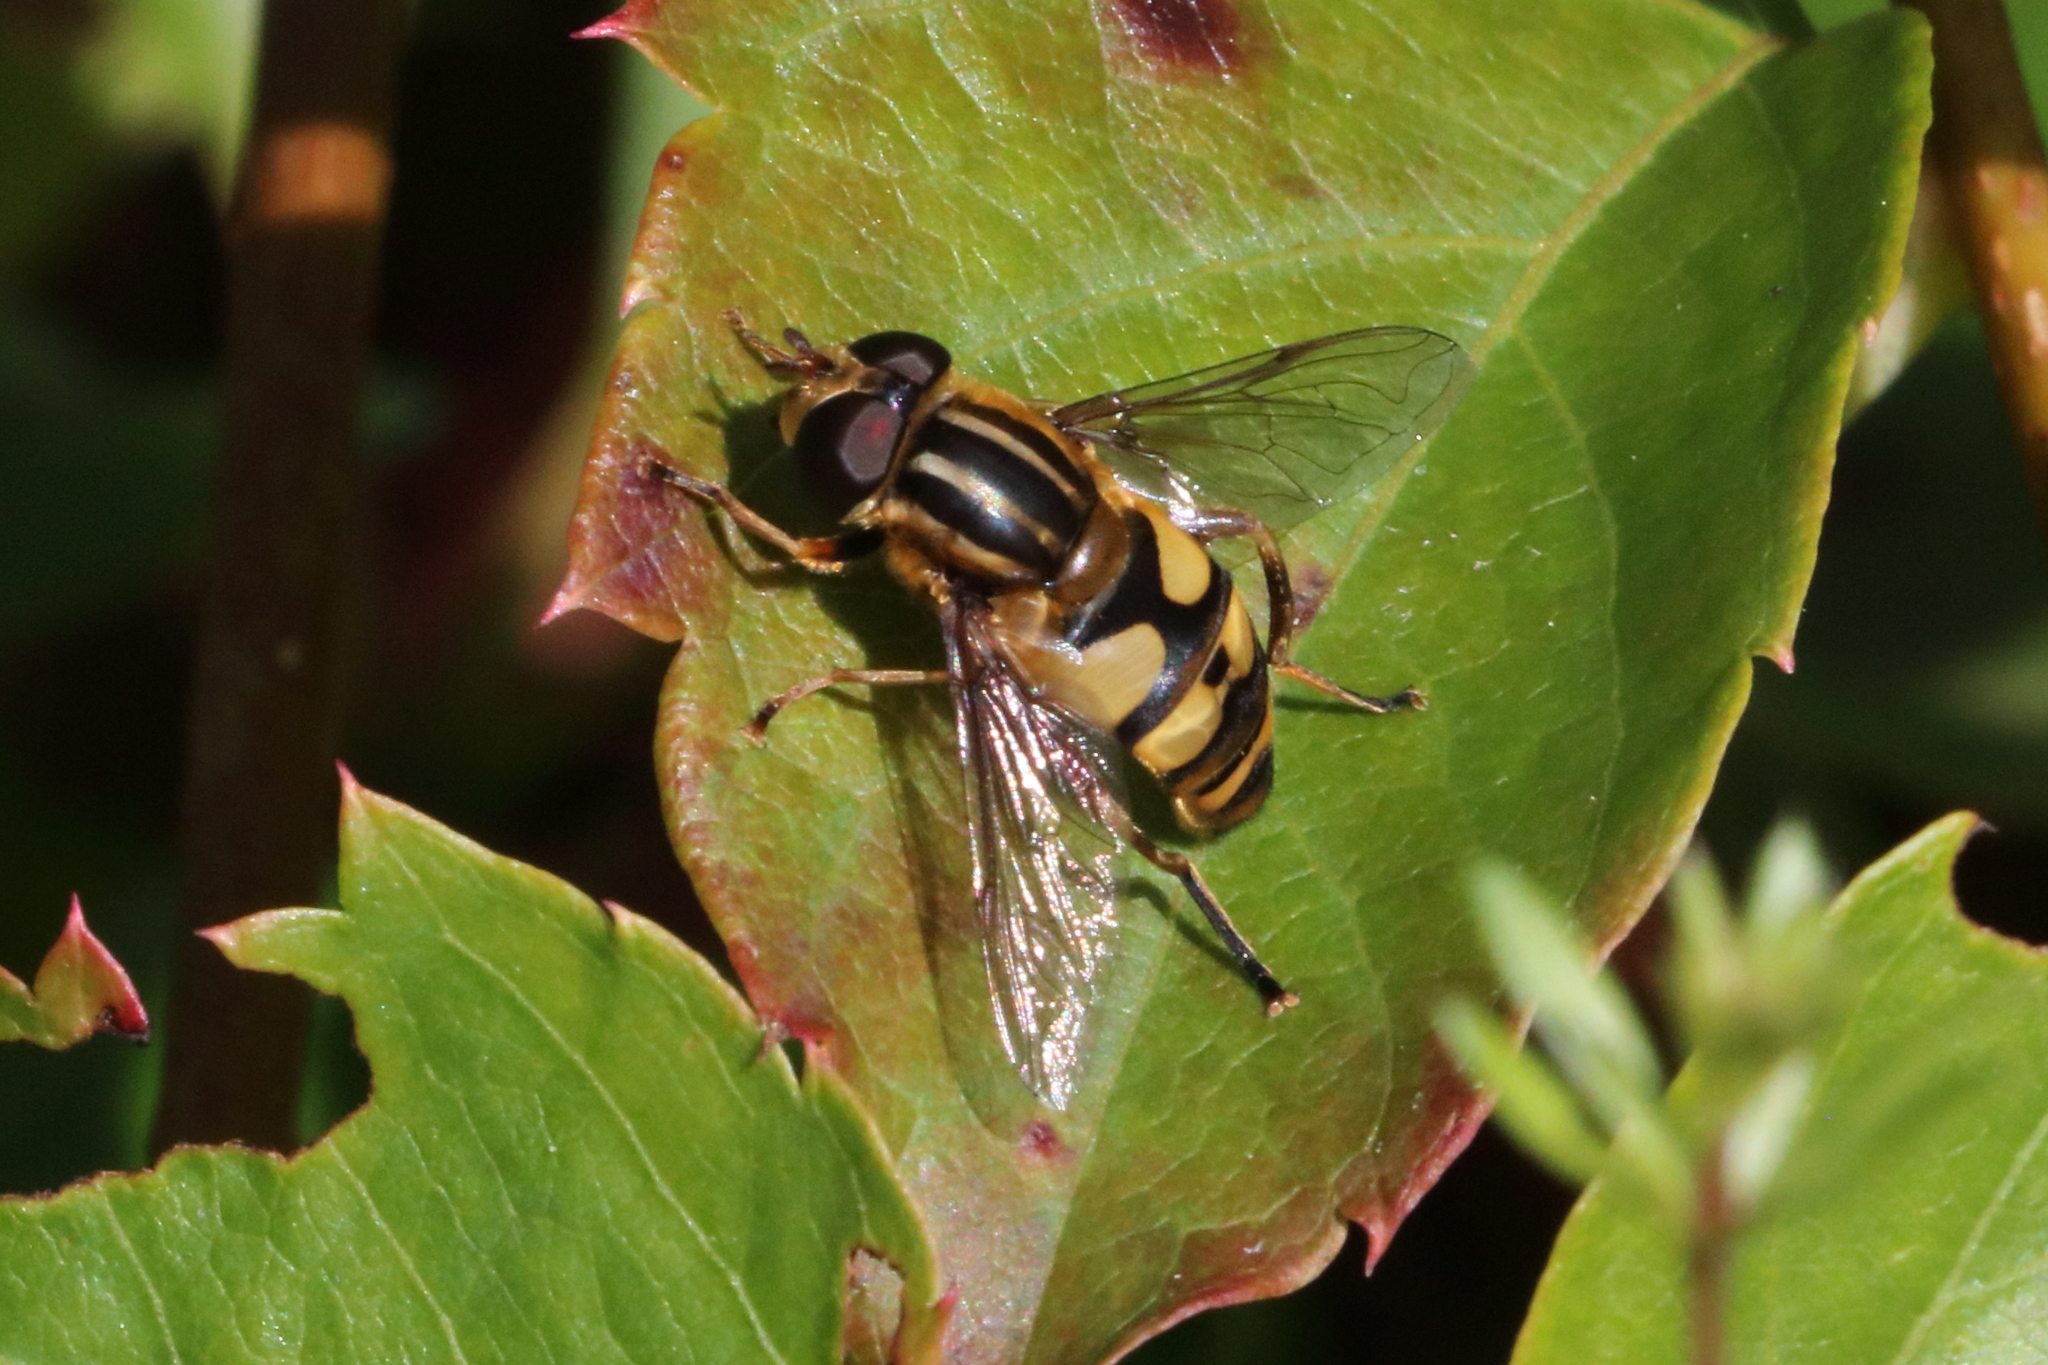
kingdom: Animalia
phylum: Arthropoda
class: Insecta
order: Diptera
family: Syrphidae
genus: Helophilus
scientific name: Helophilus fasciatus
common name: Narrow-headed marsh fly
